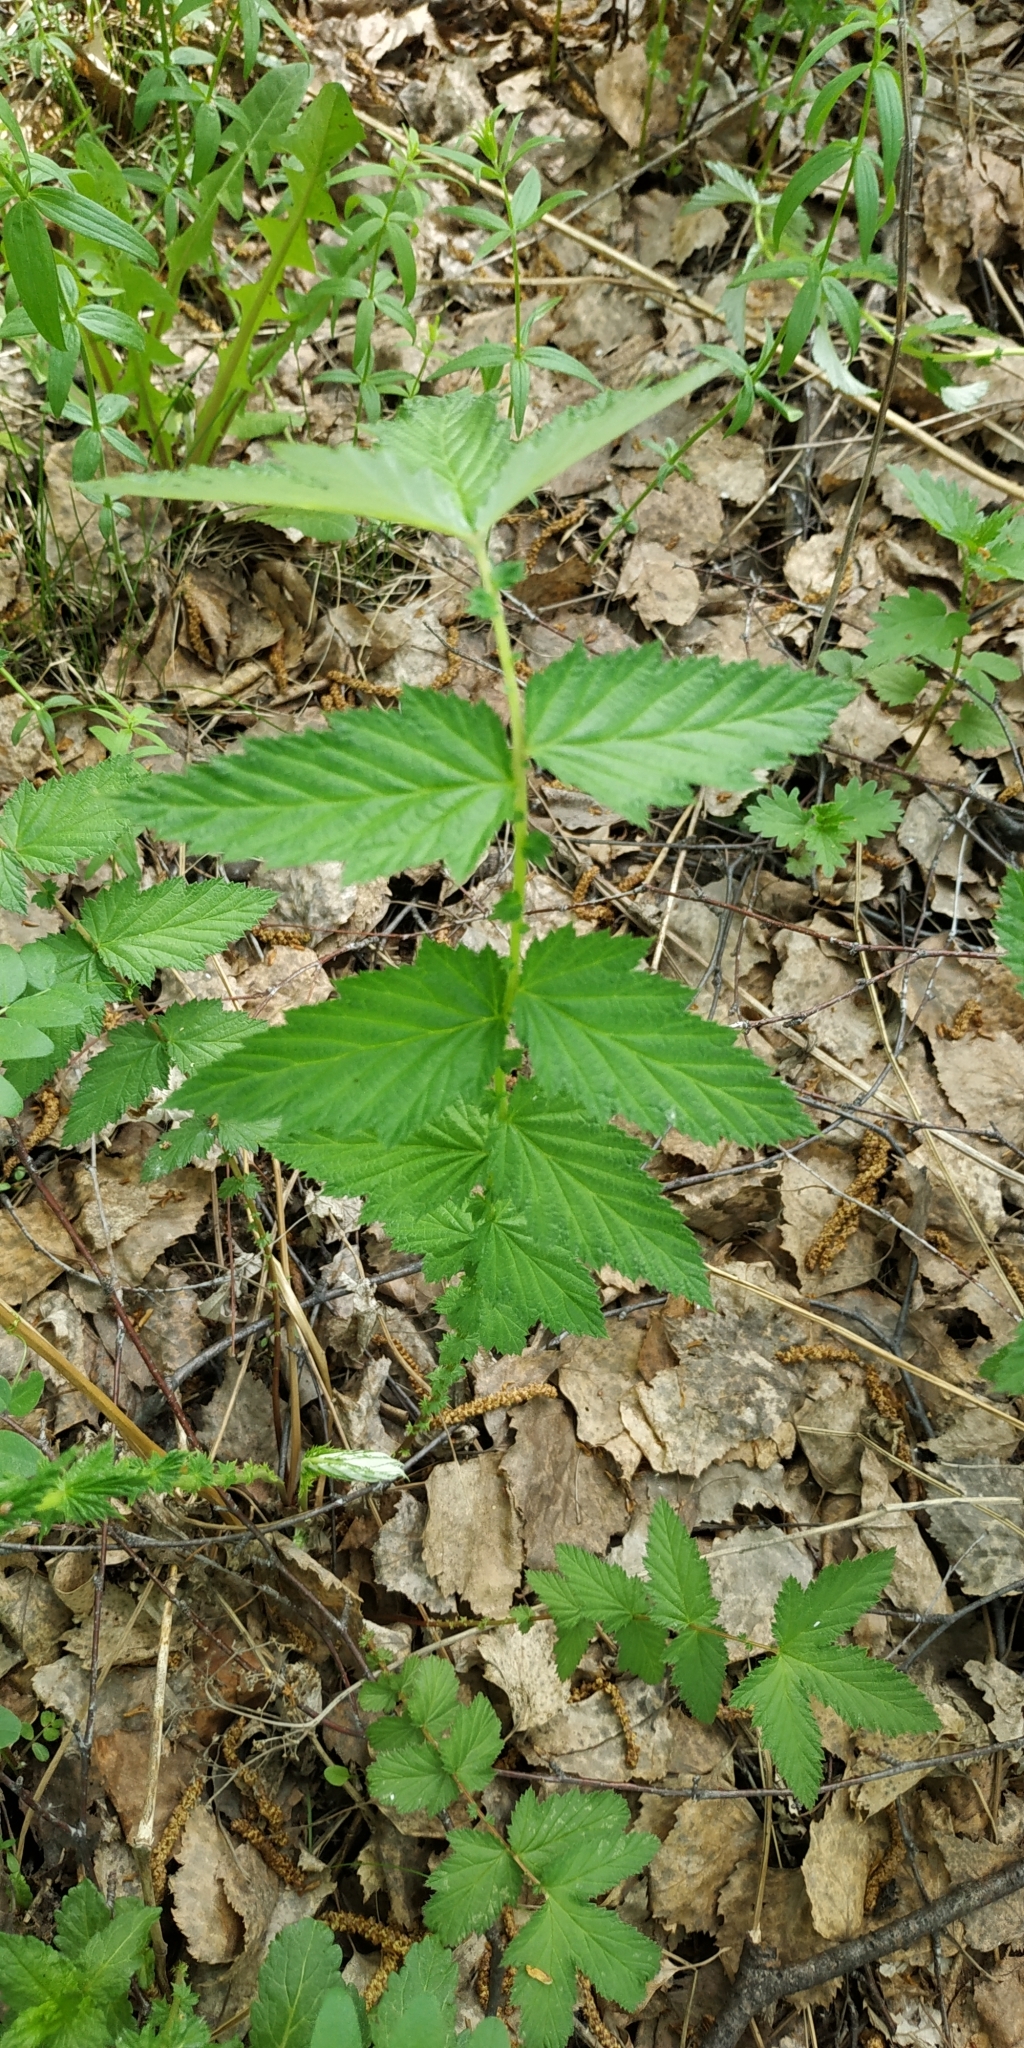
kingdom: Plantae
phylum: Tracheophyta
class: Magnoliopsida
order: Rosales
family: Rosaceae
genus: Filipendula
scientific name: Filipendula ulmaria
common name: Meadowsweet
